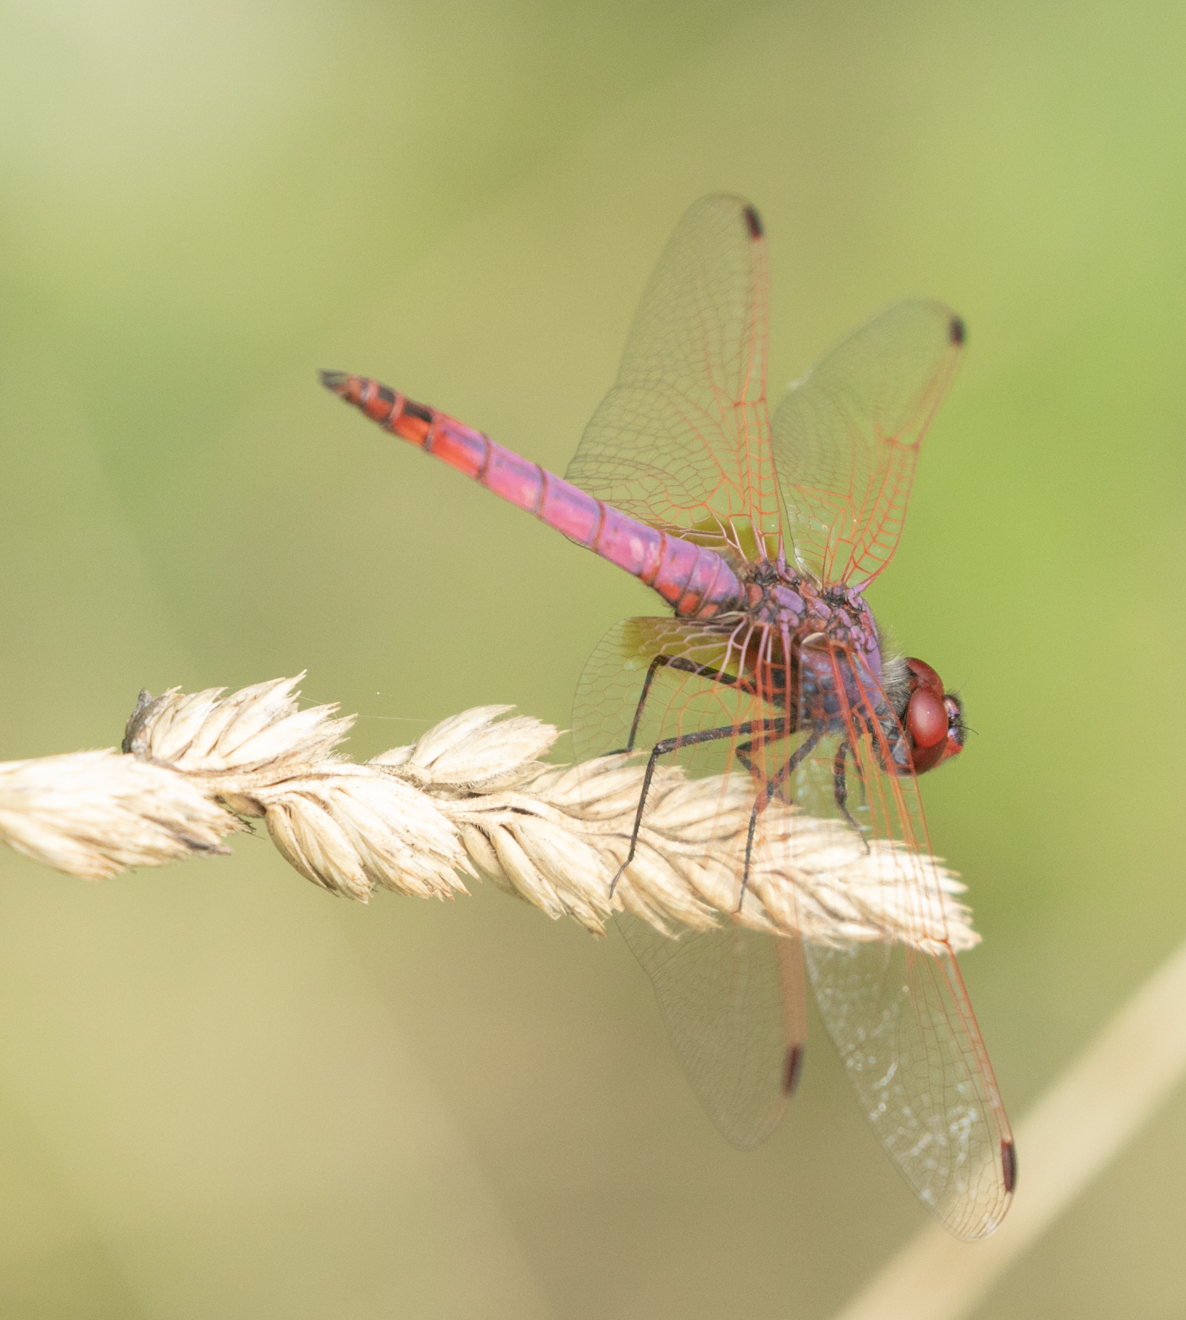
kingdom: Animalia
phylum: Arthropoda
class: Insecta
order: Odonata
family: Libellulidae
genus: Trithemis
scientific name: Trithemis annulata
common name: Violet dropwing
